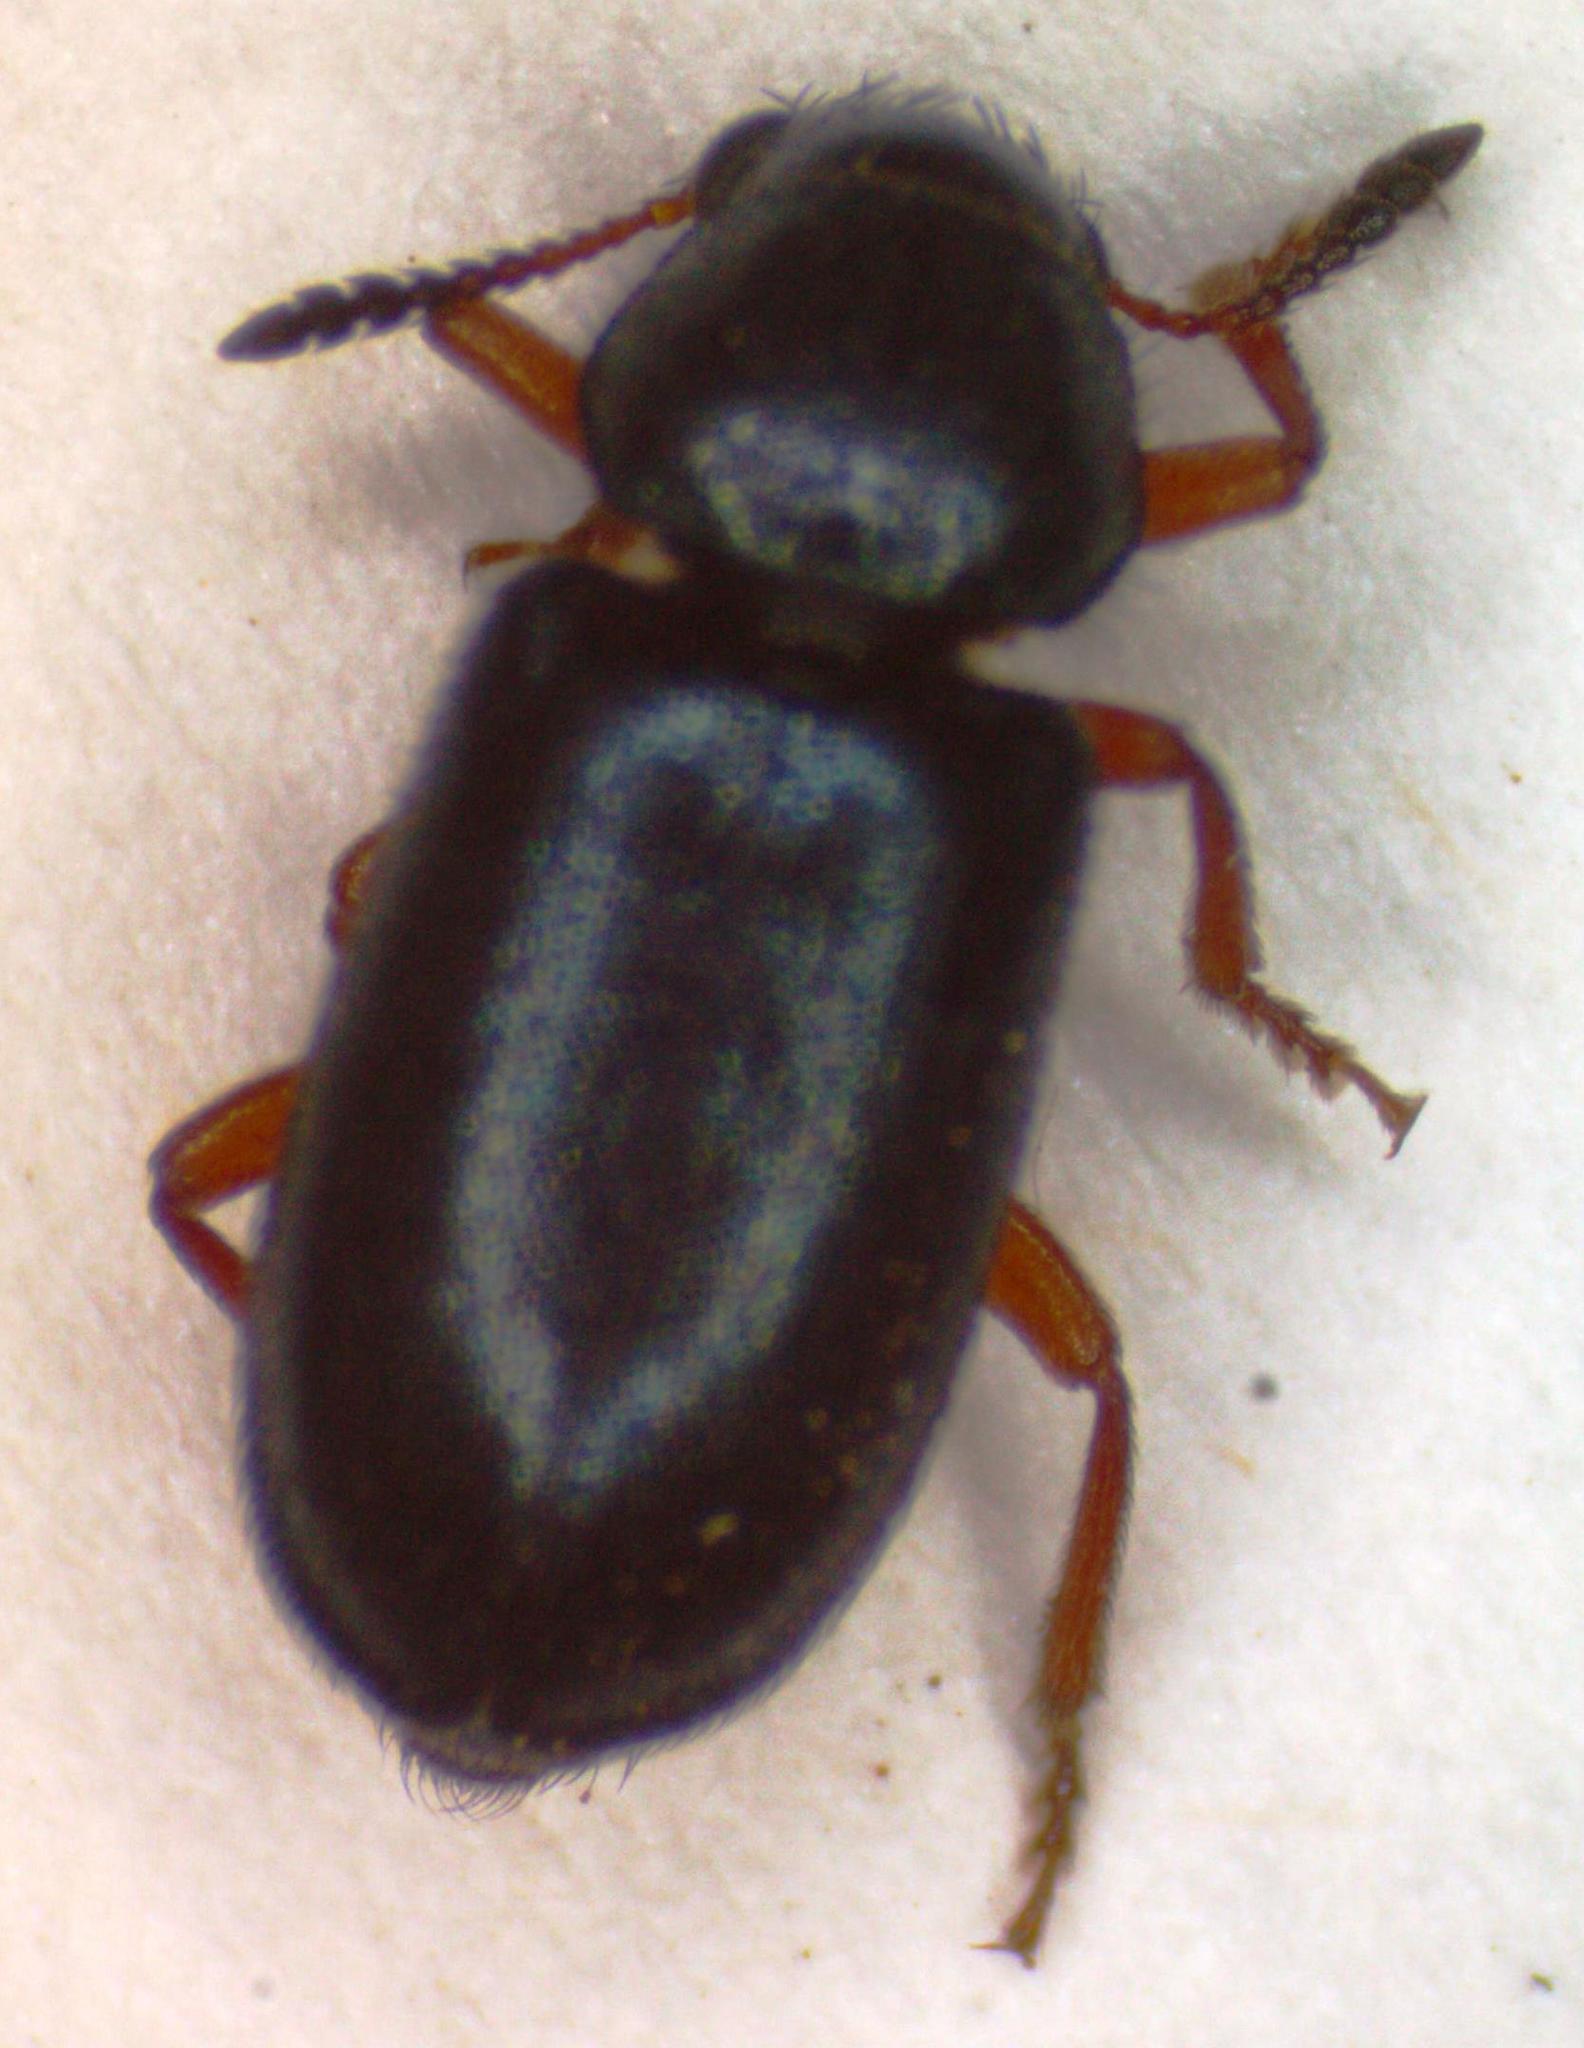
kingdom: Animalia
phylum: Arthropoda
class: Insecta
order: Coleoptera
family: Cleridae
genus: Necrobia
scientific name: Necrobia rufipes
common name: Red-legged ham beetle
